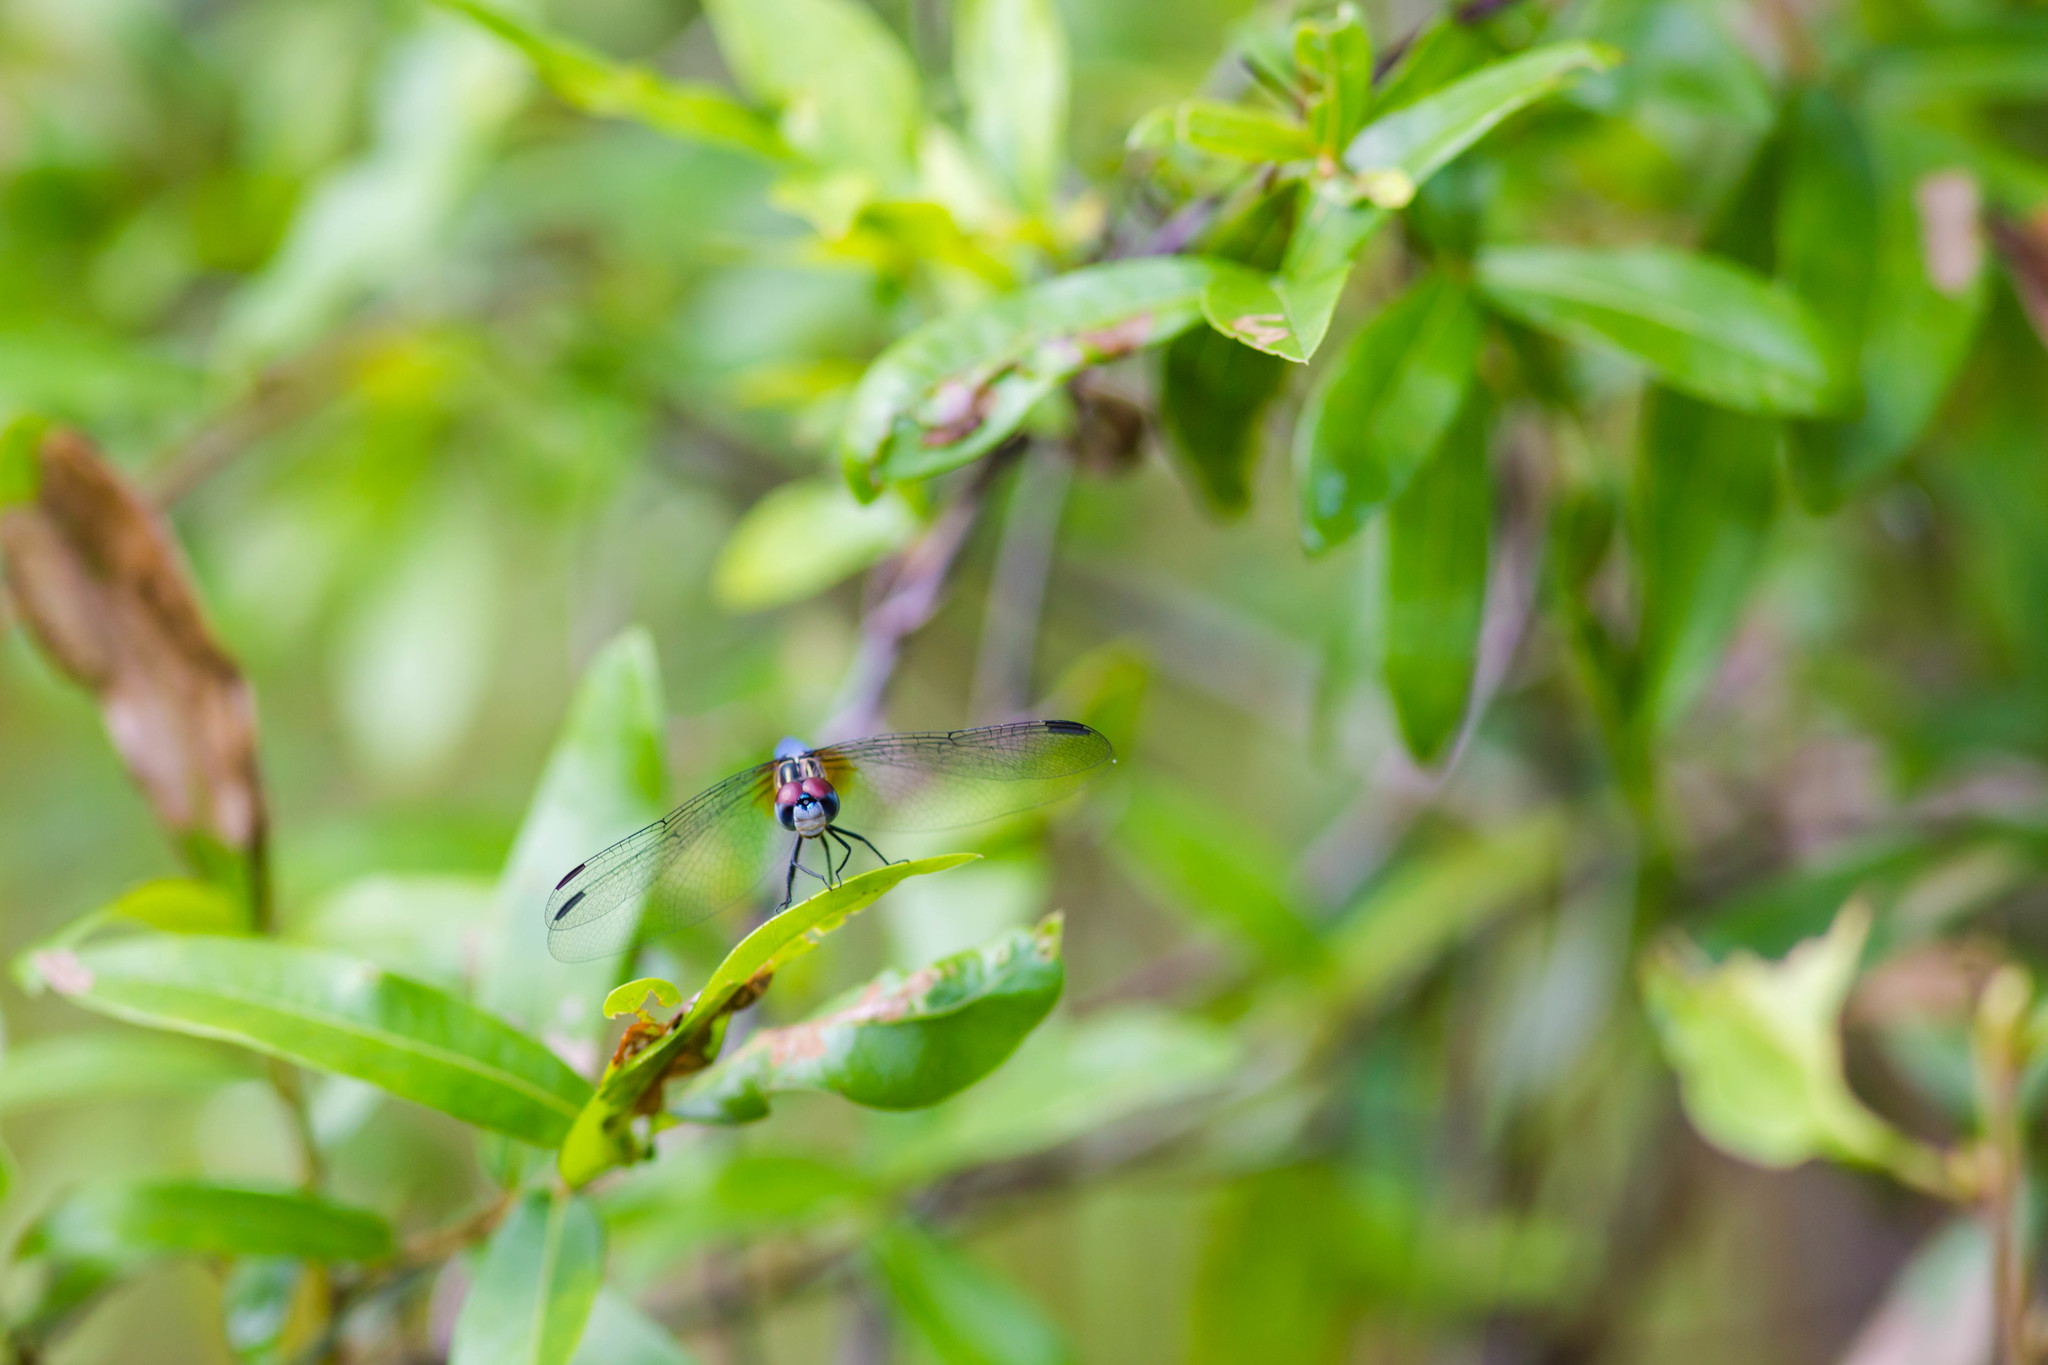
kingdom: Animalia
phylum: Arthropoda
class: Insecta
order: Odonata
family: Libellulidae
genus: Pachydiplax
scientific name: Pachydiplax longipennis
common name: Blue dasher
